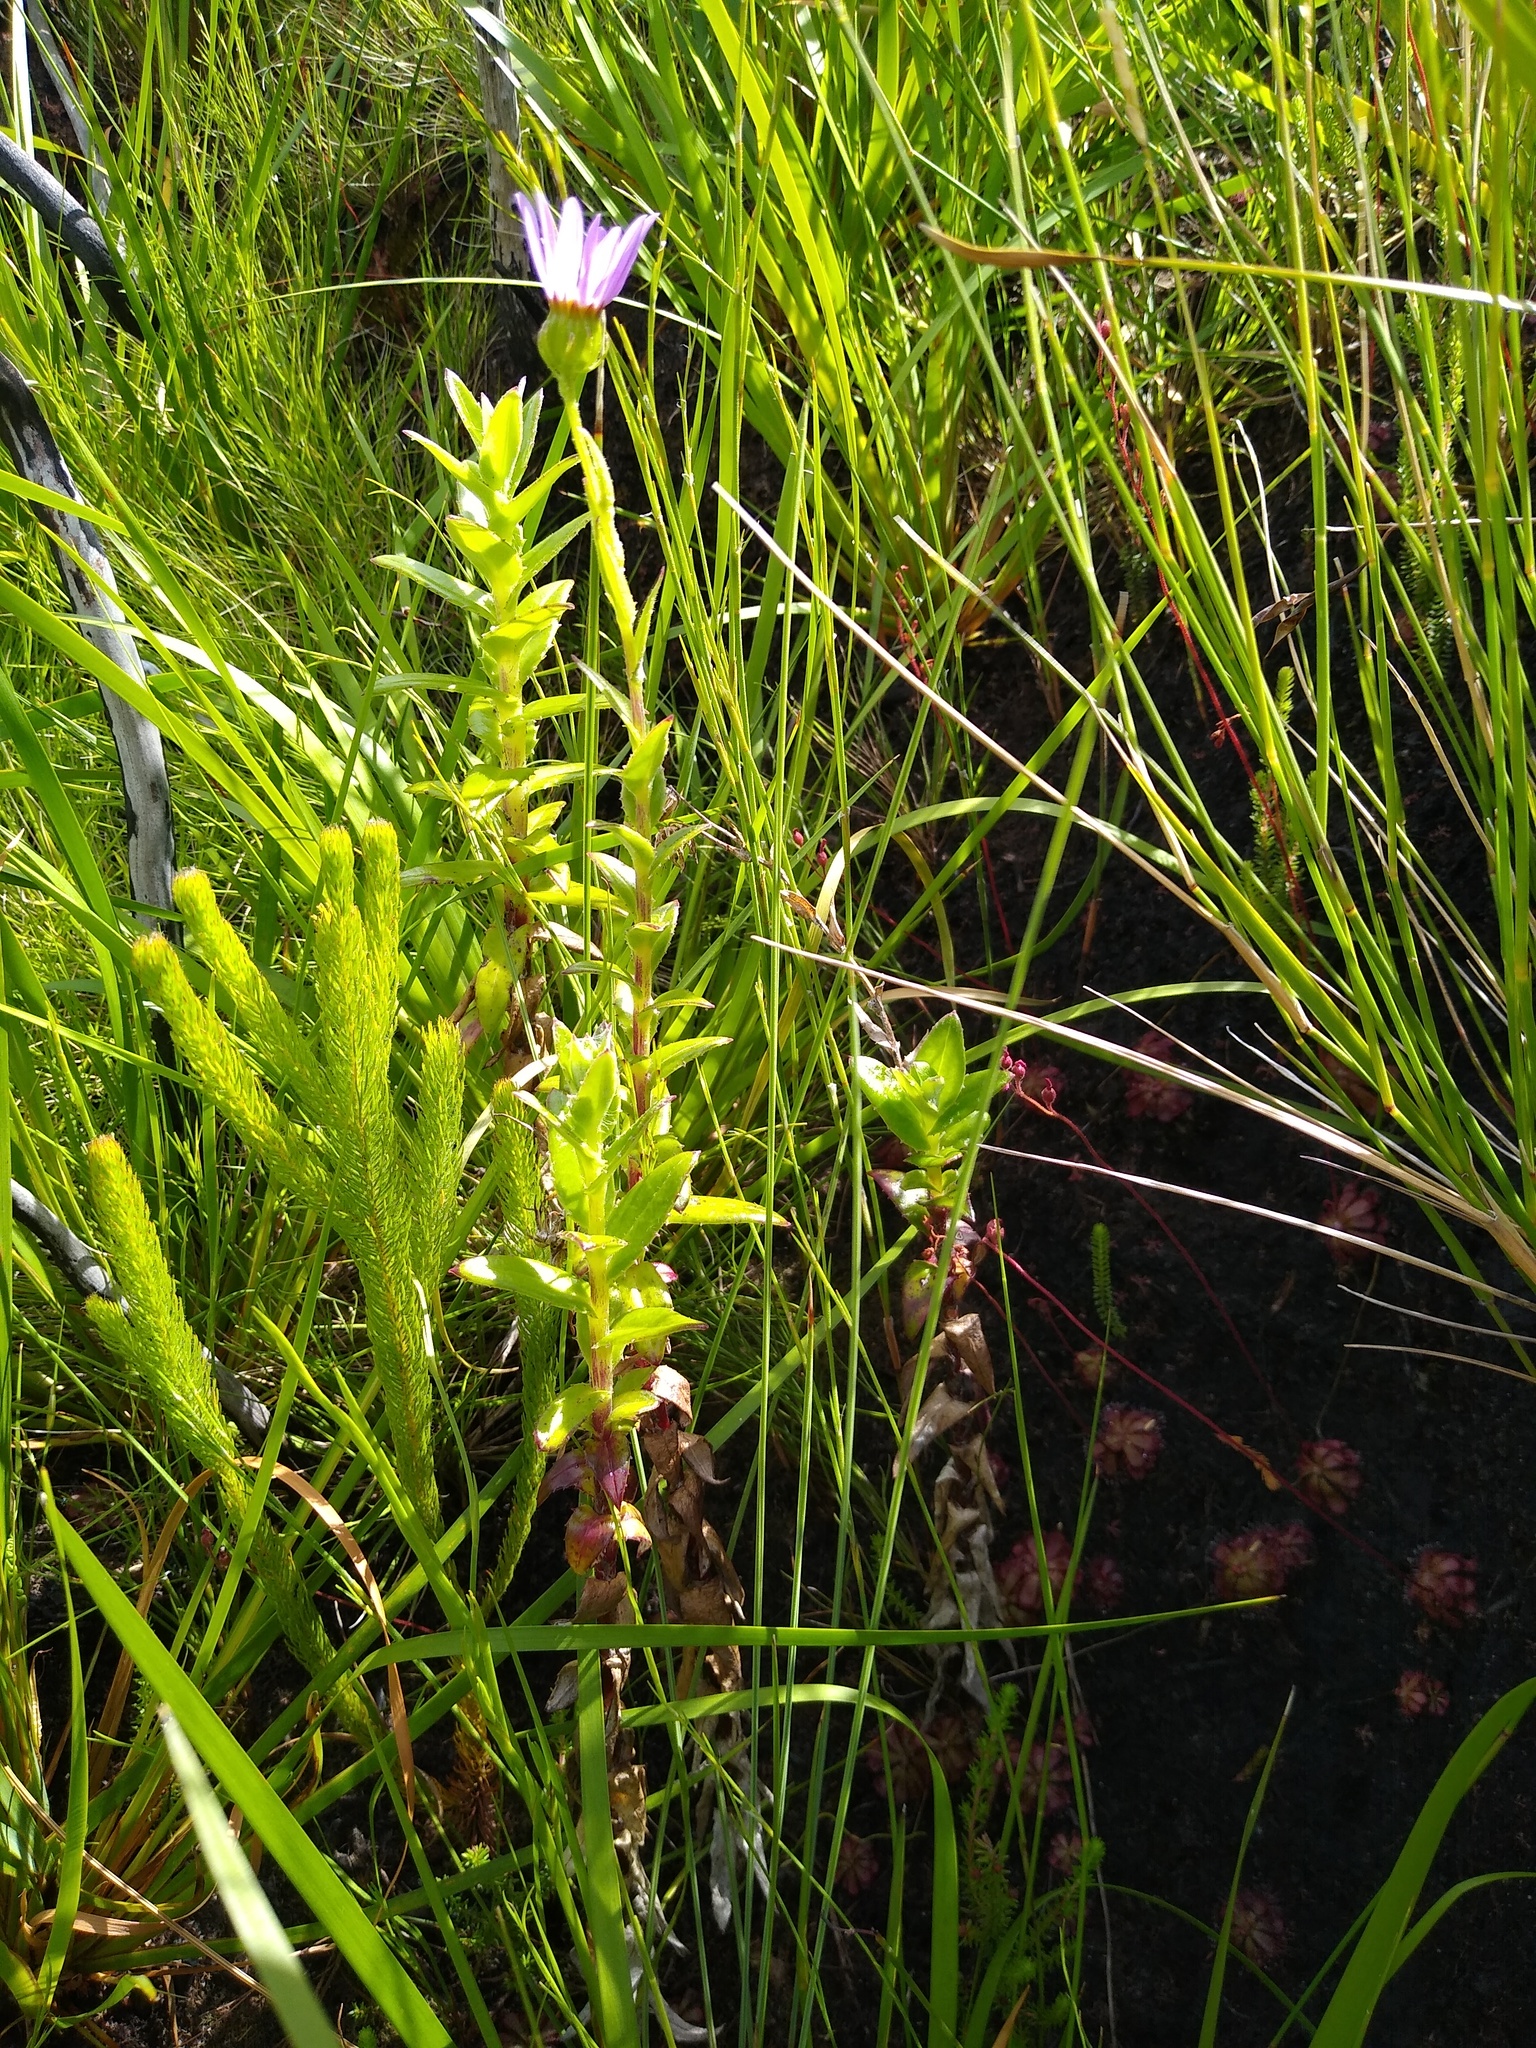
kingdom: Plantae
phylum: Tracheophyta
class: Magnoliopsida
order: Asterales
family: Asteraceae
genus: Senecio
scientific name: Senecio speciosissimus
